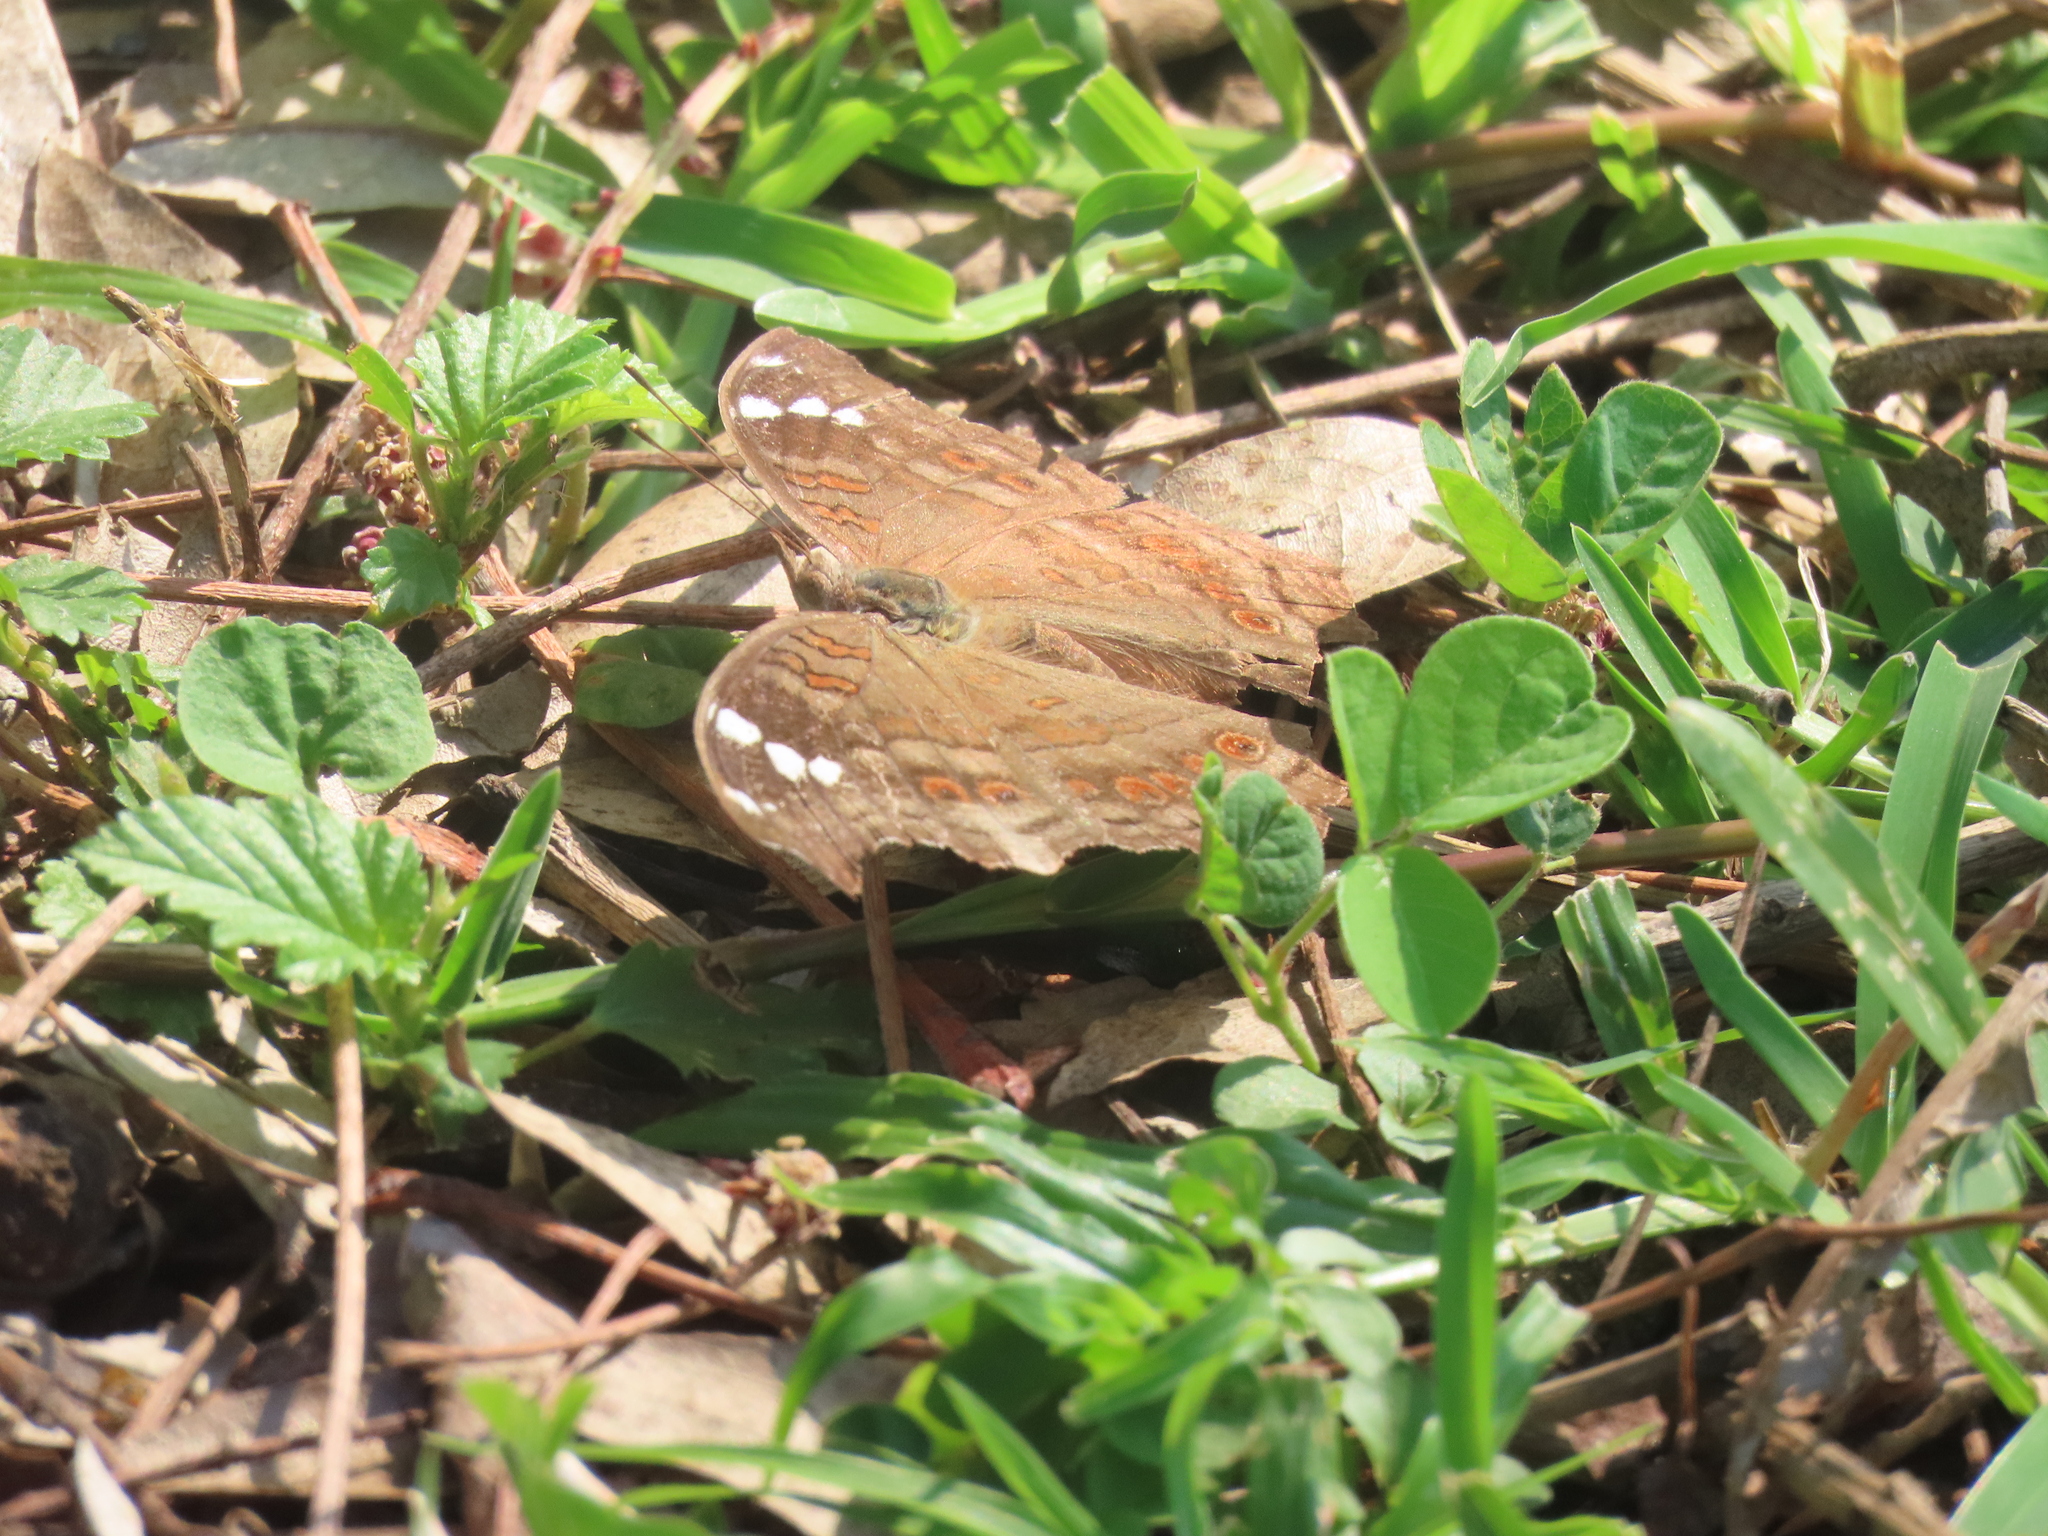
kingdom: Animalia
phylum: Arthropoda
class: Insecta
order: Lepidoptera
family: Nymphalidae
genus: Junonia
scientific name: Junonia natalica
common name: Brown pansy
